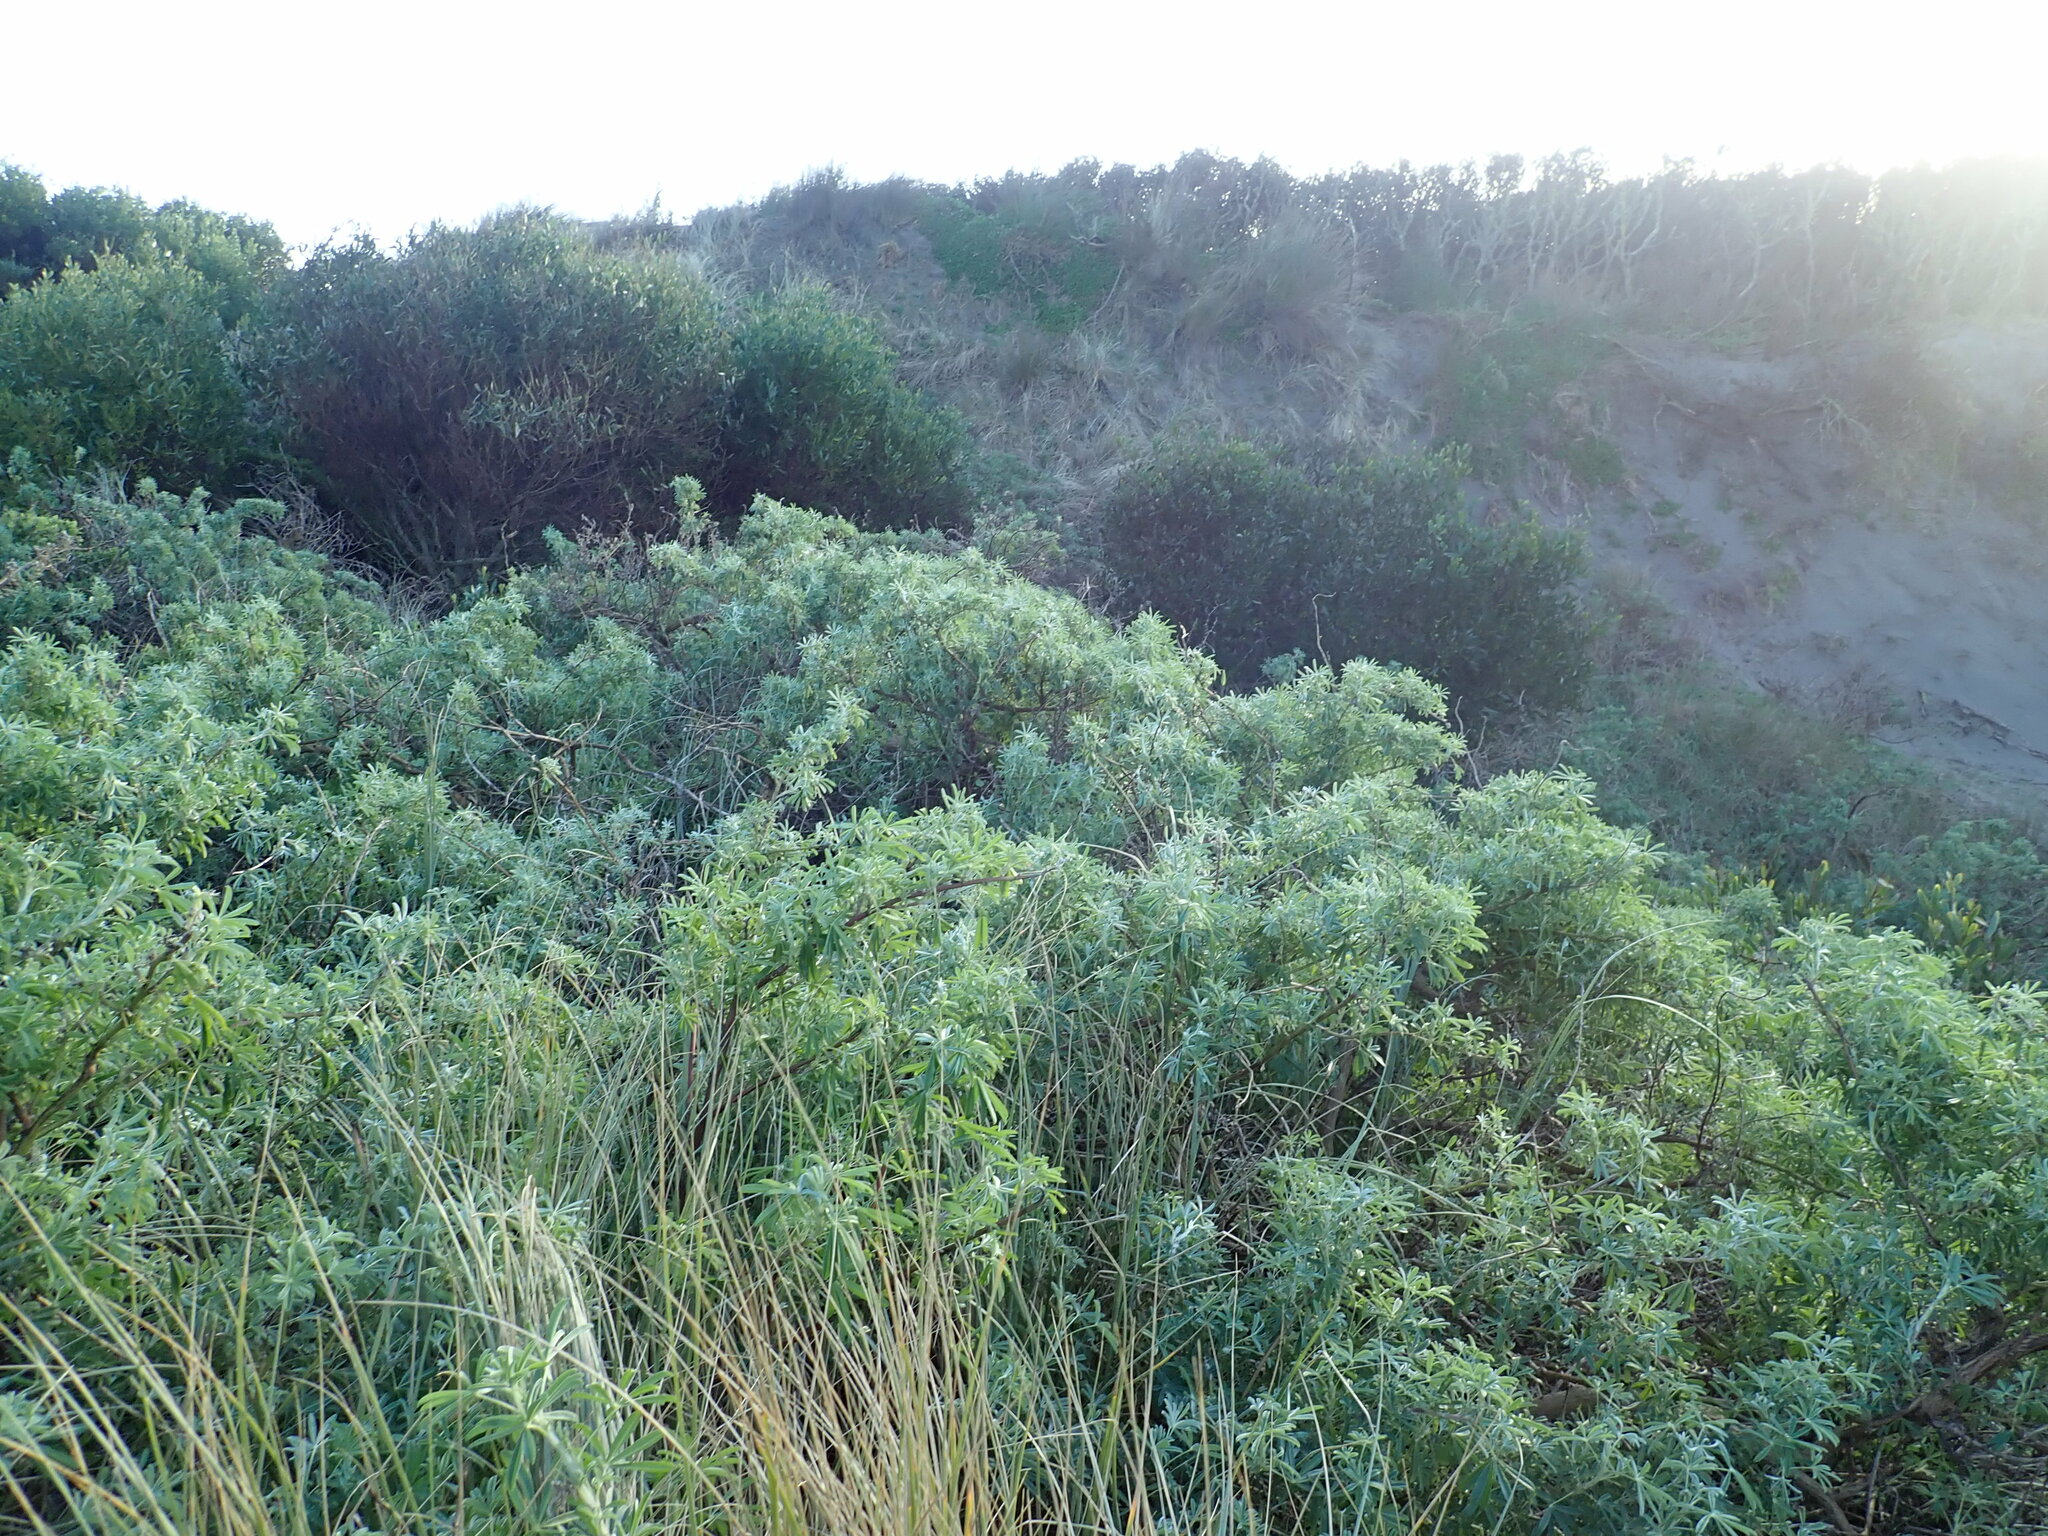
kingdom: Plantae
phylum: Tracheophyta
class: Magnoliopsida
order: Fabales
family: Fabaceae
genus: Lupinus
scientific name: Lupinus arboreus
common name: Yellow bush lupine
